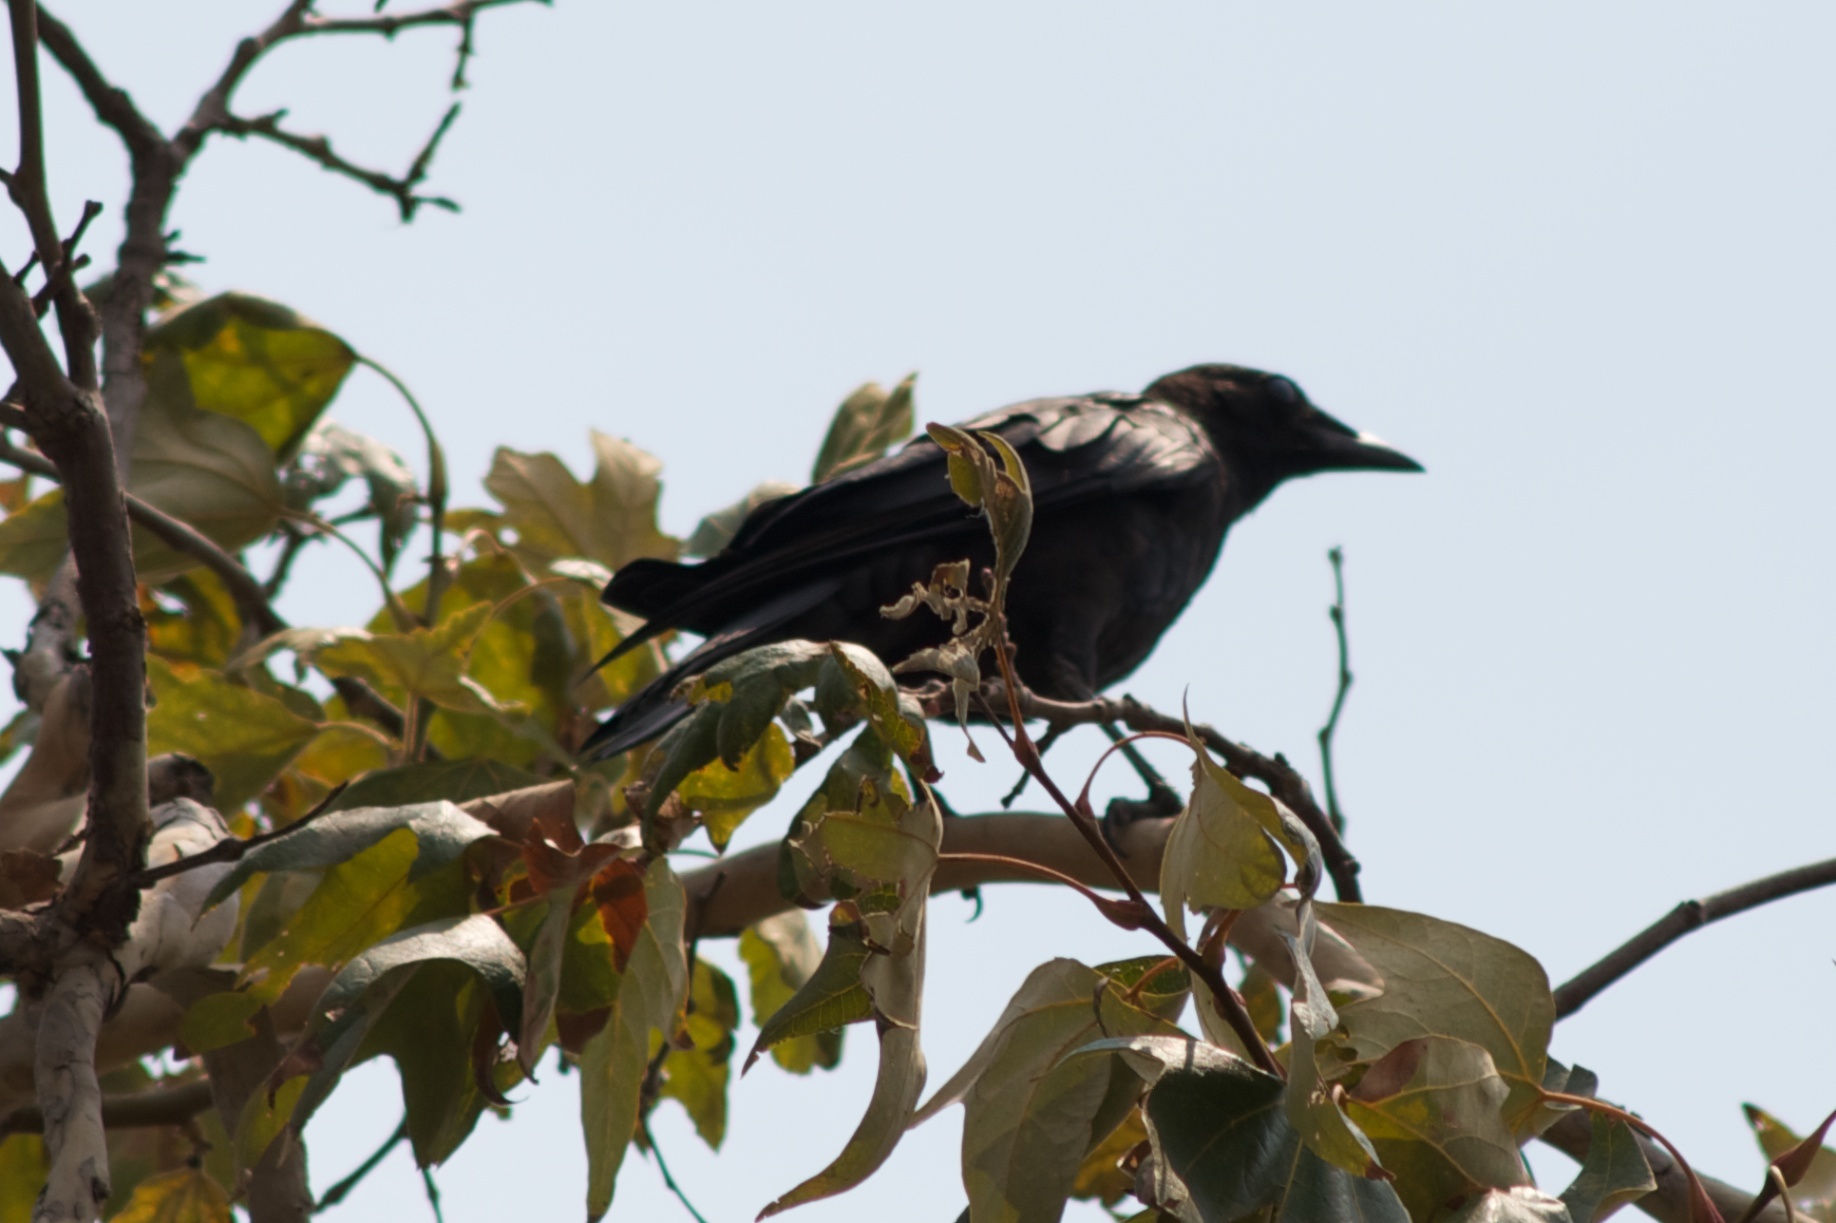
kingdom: Animalia
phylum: Chordata
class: Aves
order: Passeriformes
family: Corvidae
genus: Corvus
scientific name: Corvus brachyrhynchos
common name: American crow
